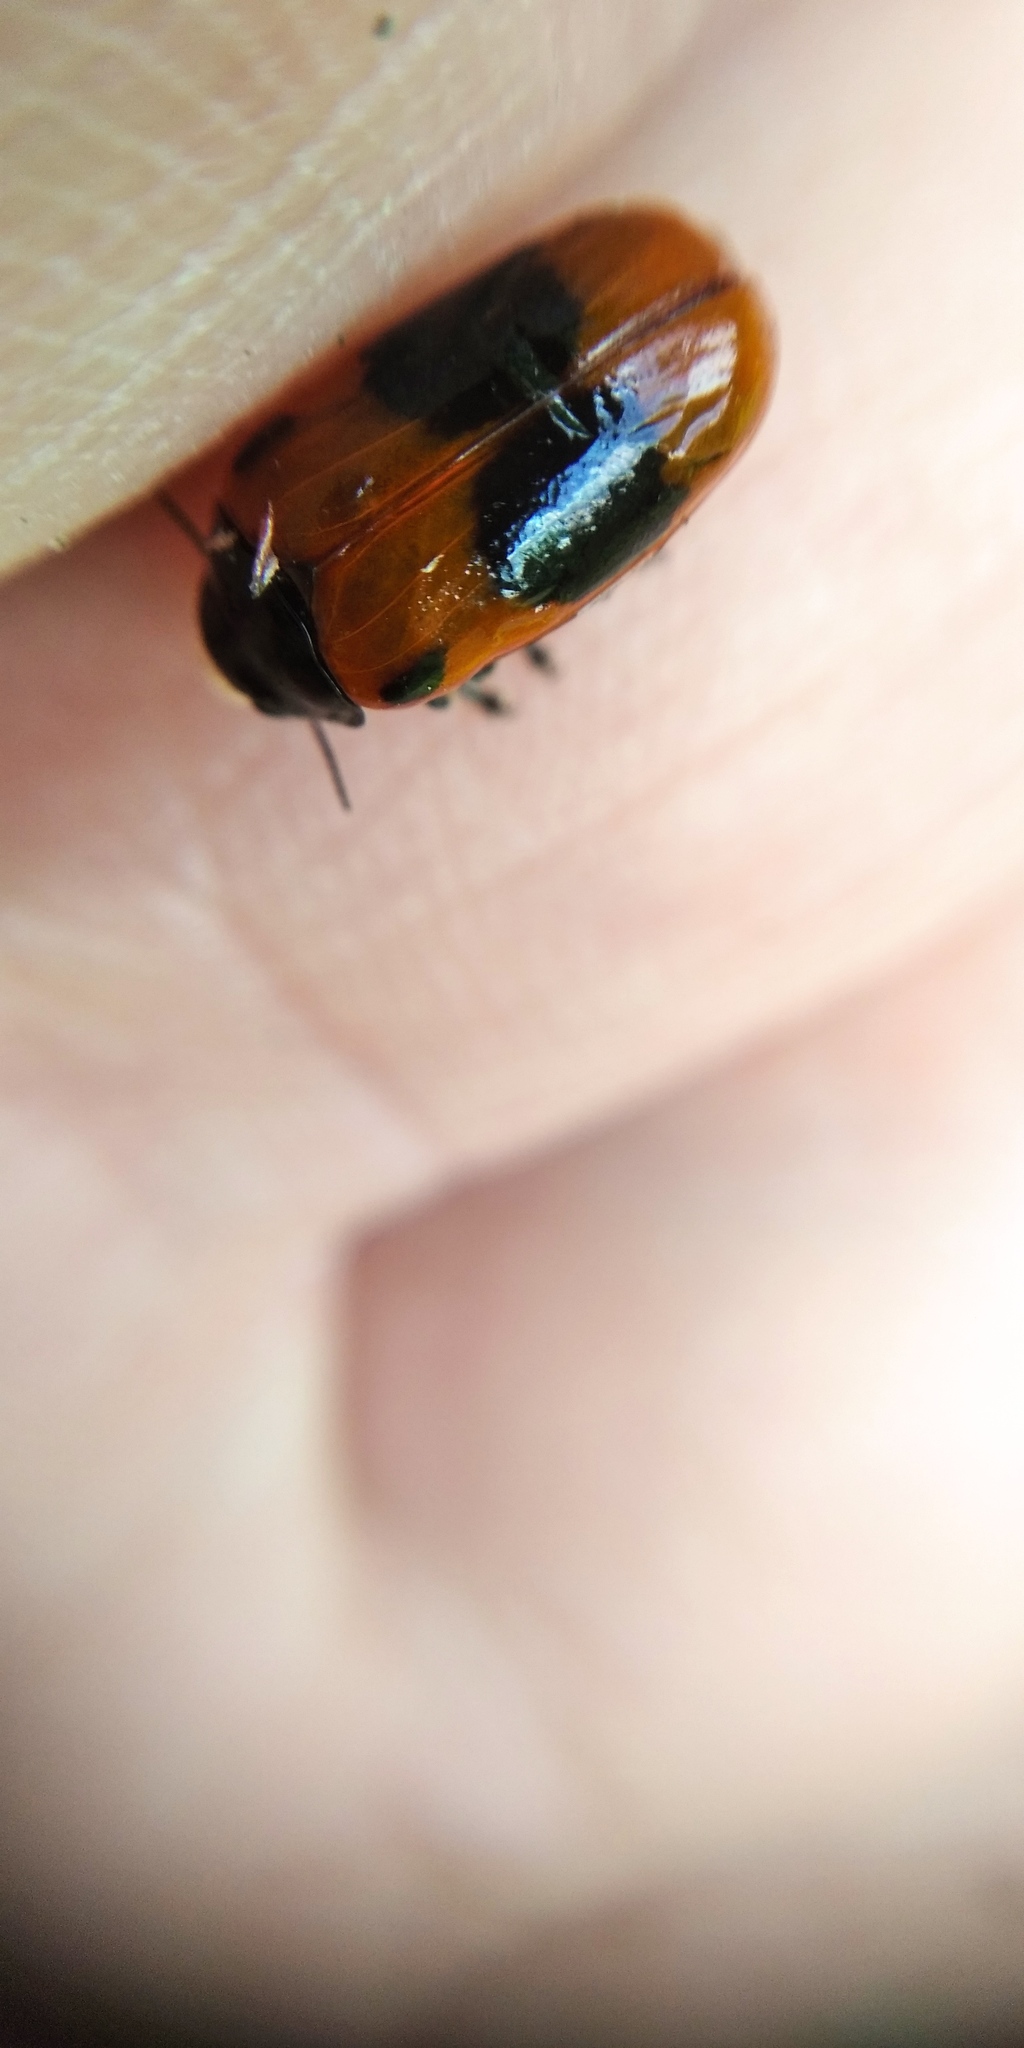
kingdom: Animalia
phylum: Arthropoda
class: Insecta
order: Coleoptera
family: Chrysomelidae
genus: Clytra
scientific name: Clytra laeviuscula
